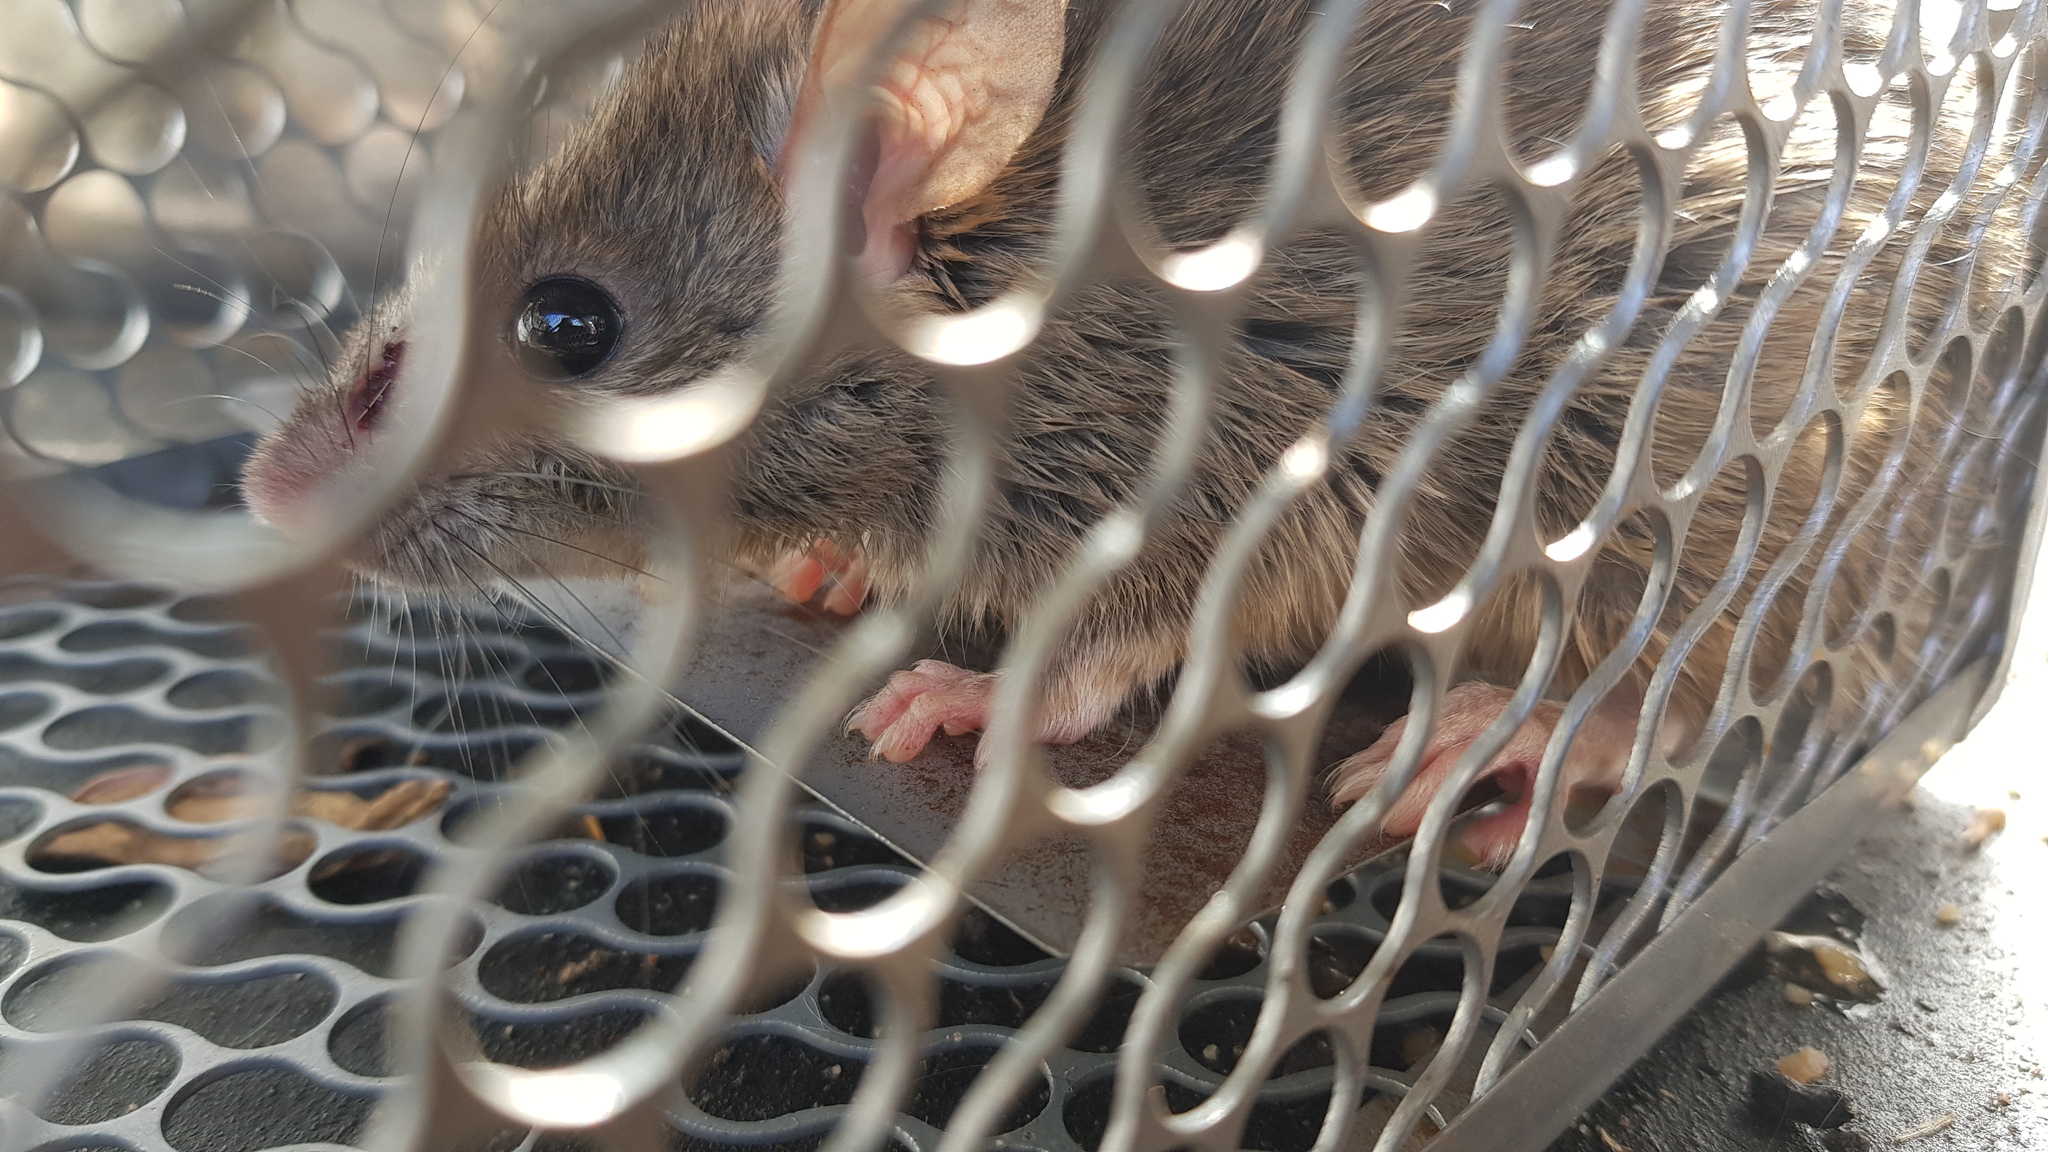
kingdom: Animalia
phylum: Chordata
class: Mammalia
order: Rodentia
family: Muridae
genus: Rattus
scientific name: Rattus rattus
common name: Black rat
